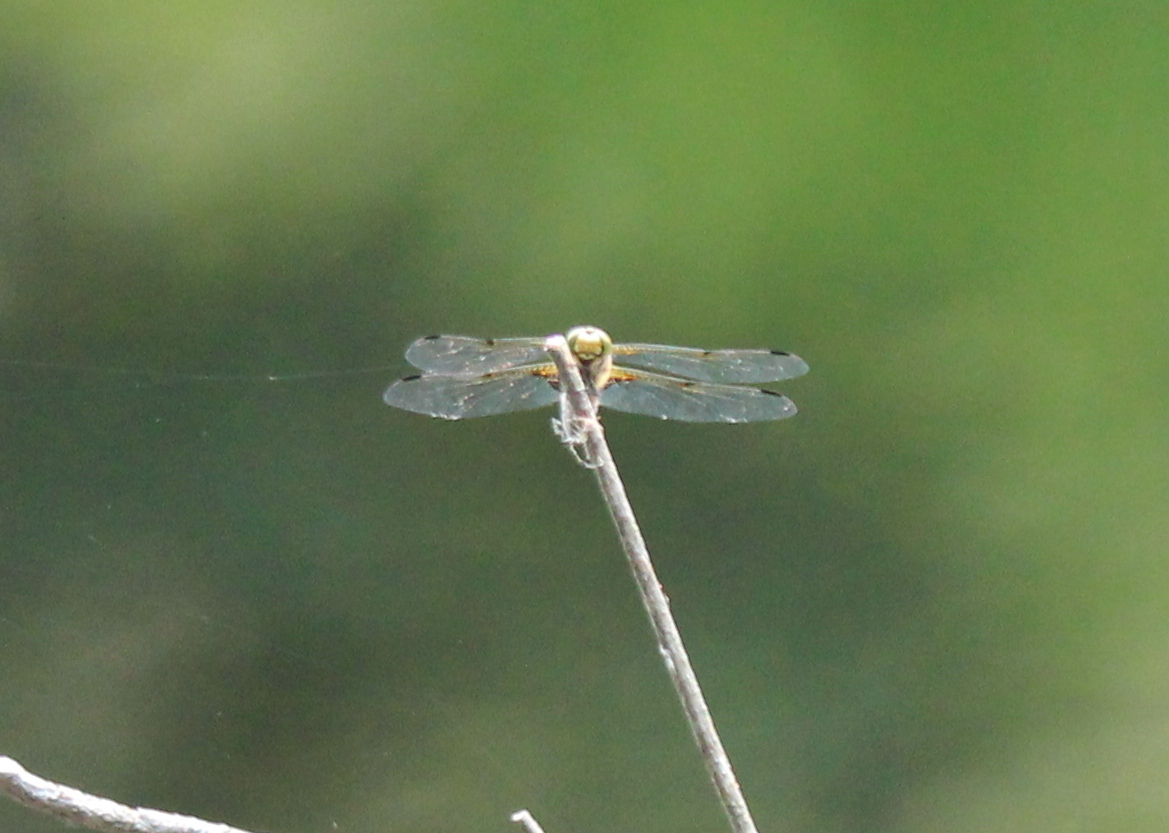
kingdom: Animalia
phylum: Arthropoda
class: Insecta
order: Odonata
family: Libellulidae
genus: Libellula
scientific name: Libellula quadrimaculata
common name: Four-spotted chaser
